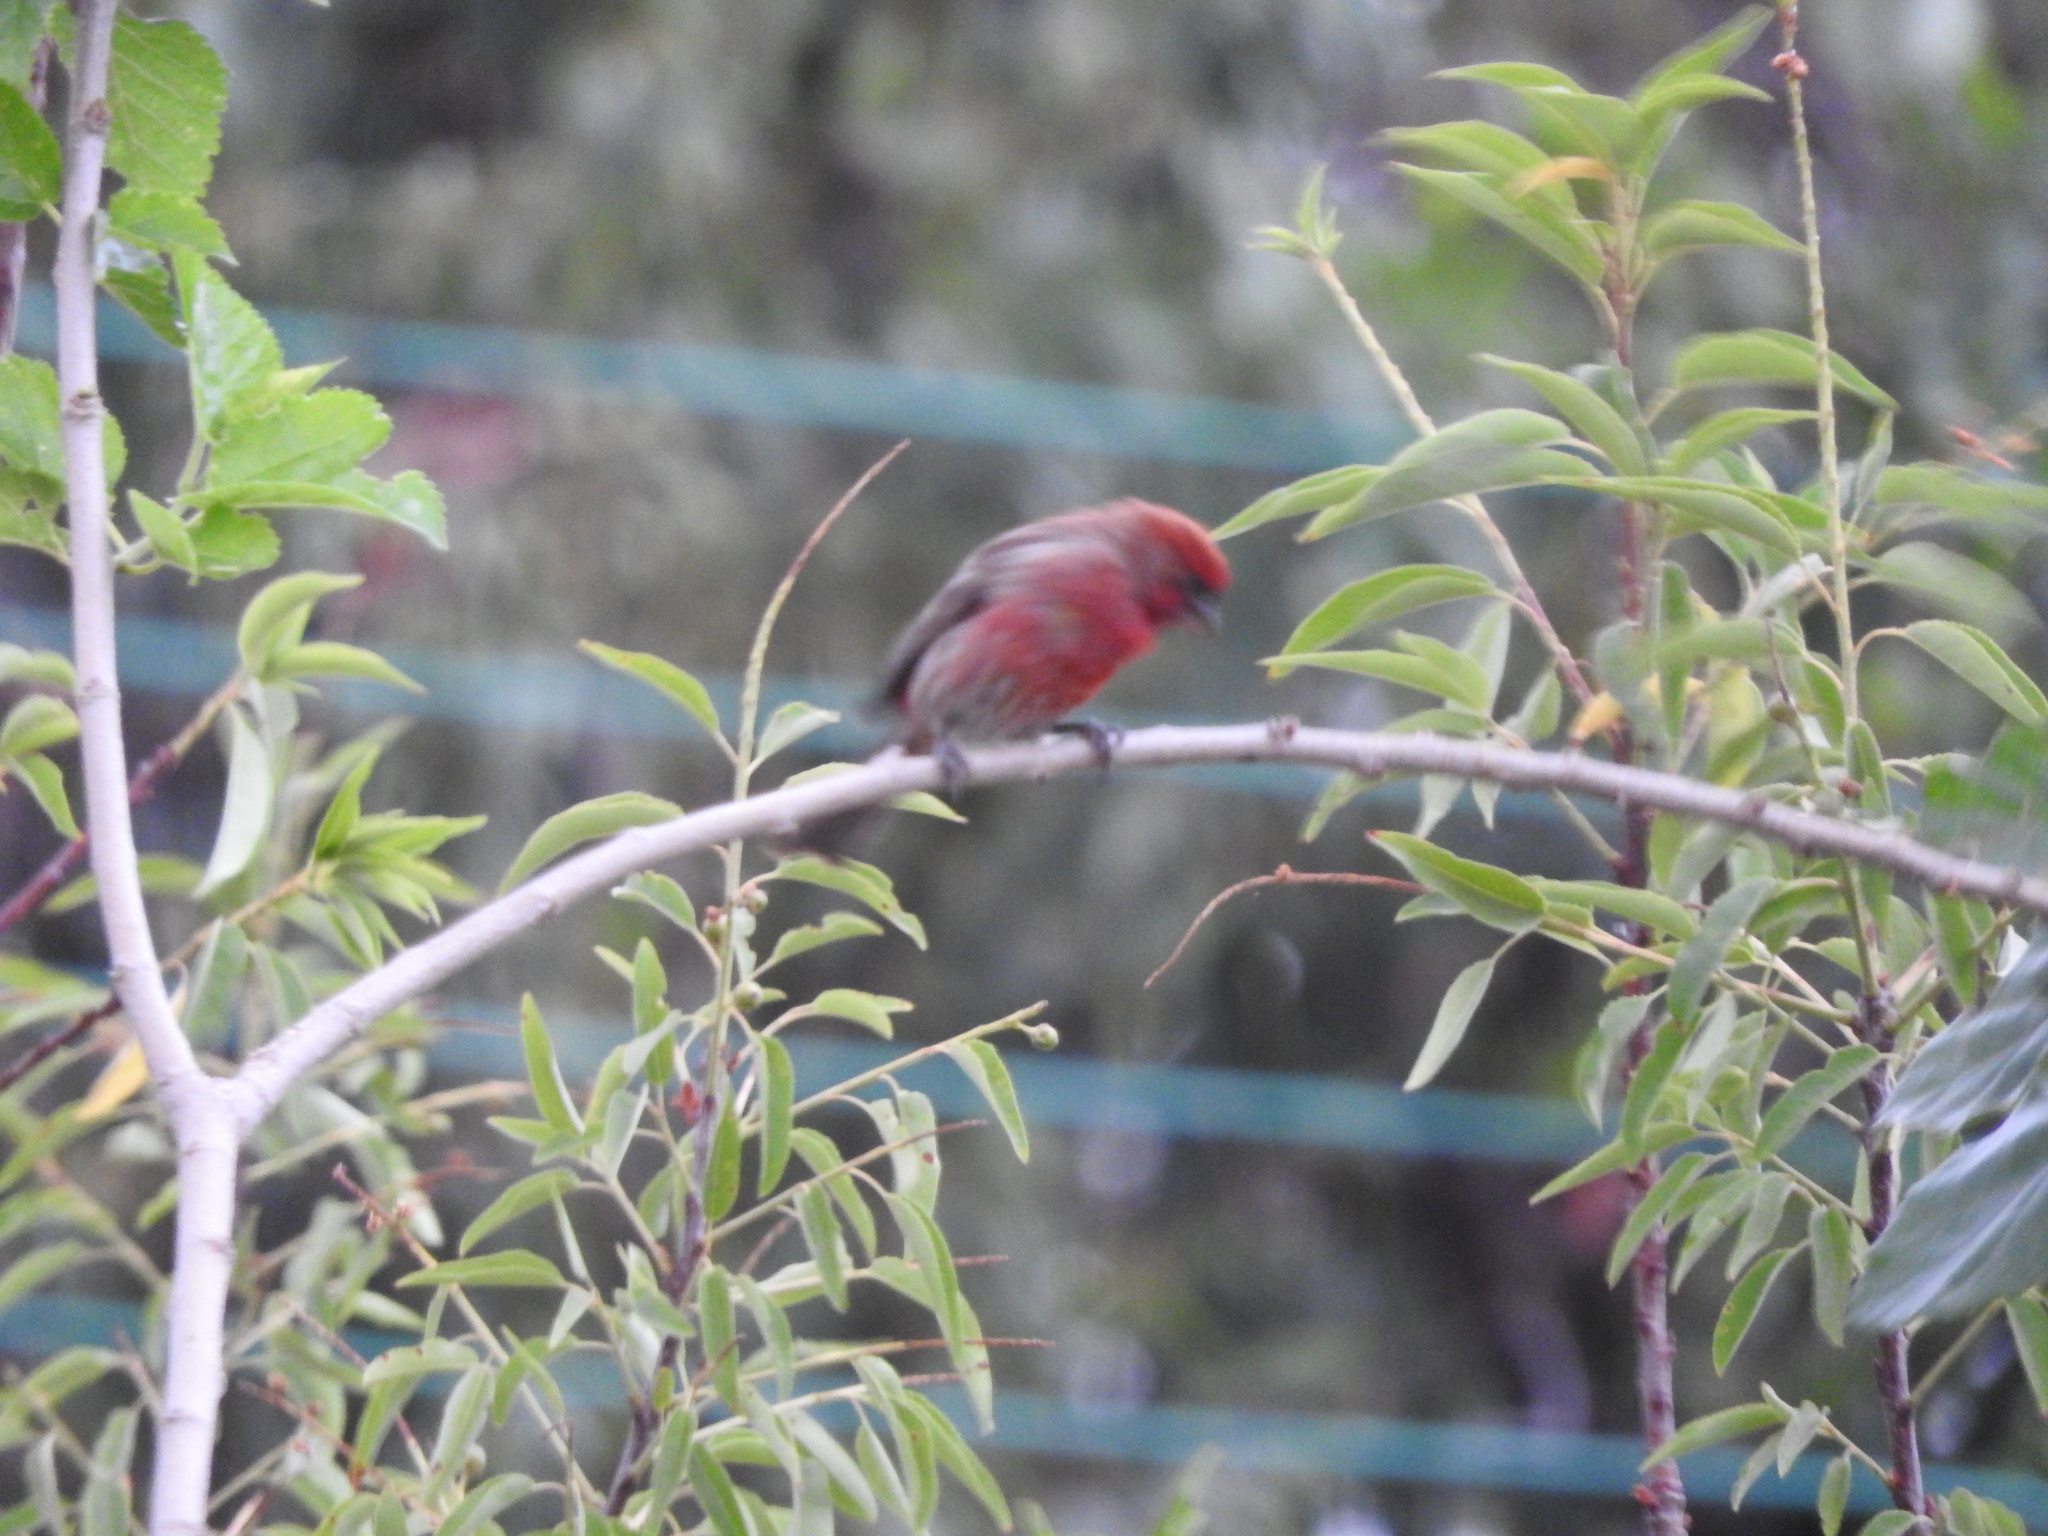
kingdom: Animalia
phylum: Chordata
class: Aves
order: Passeriformes
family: Fringillidae
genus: Haemorhous
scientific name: Haemorhous mexicanus
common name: House finch
